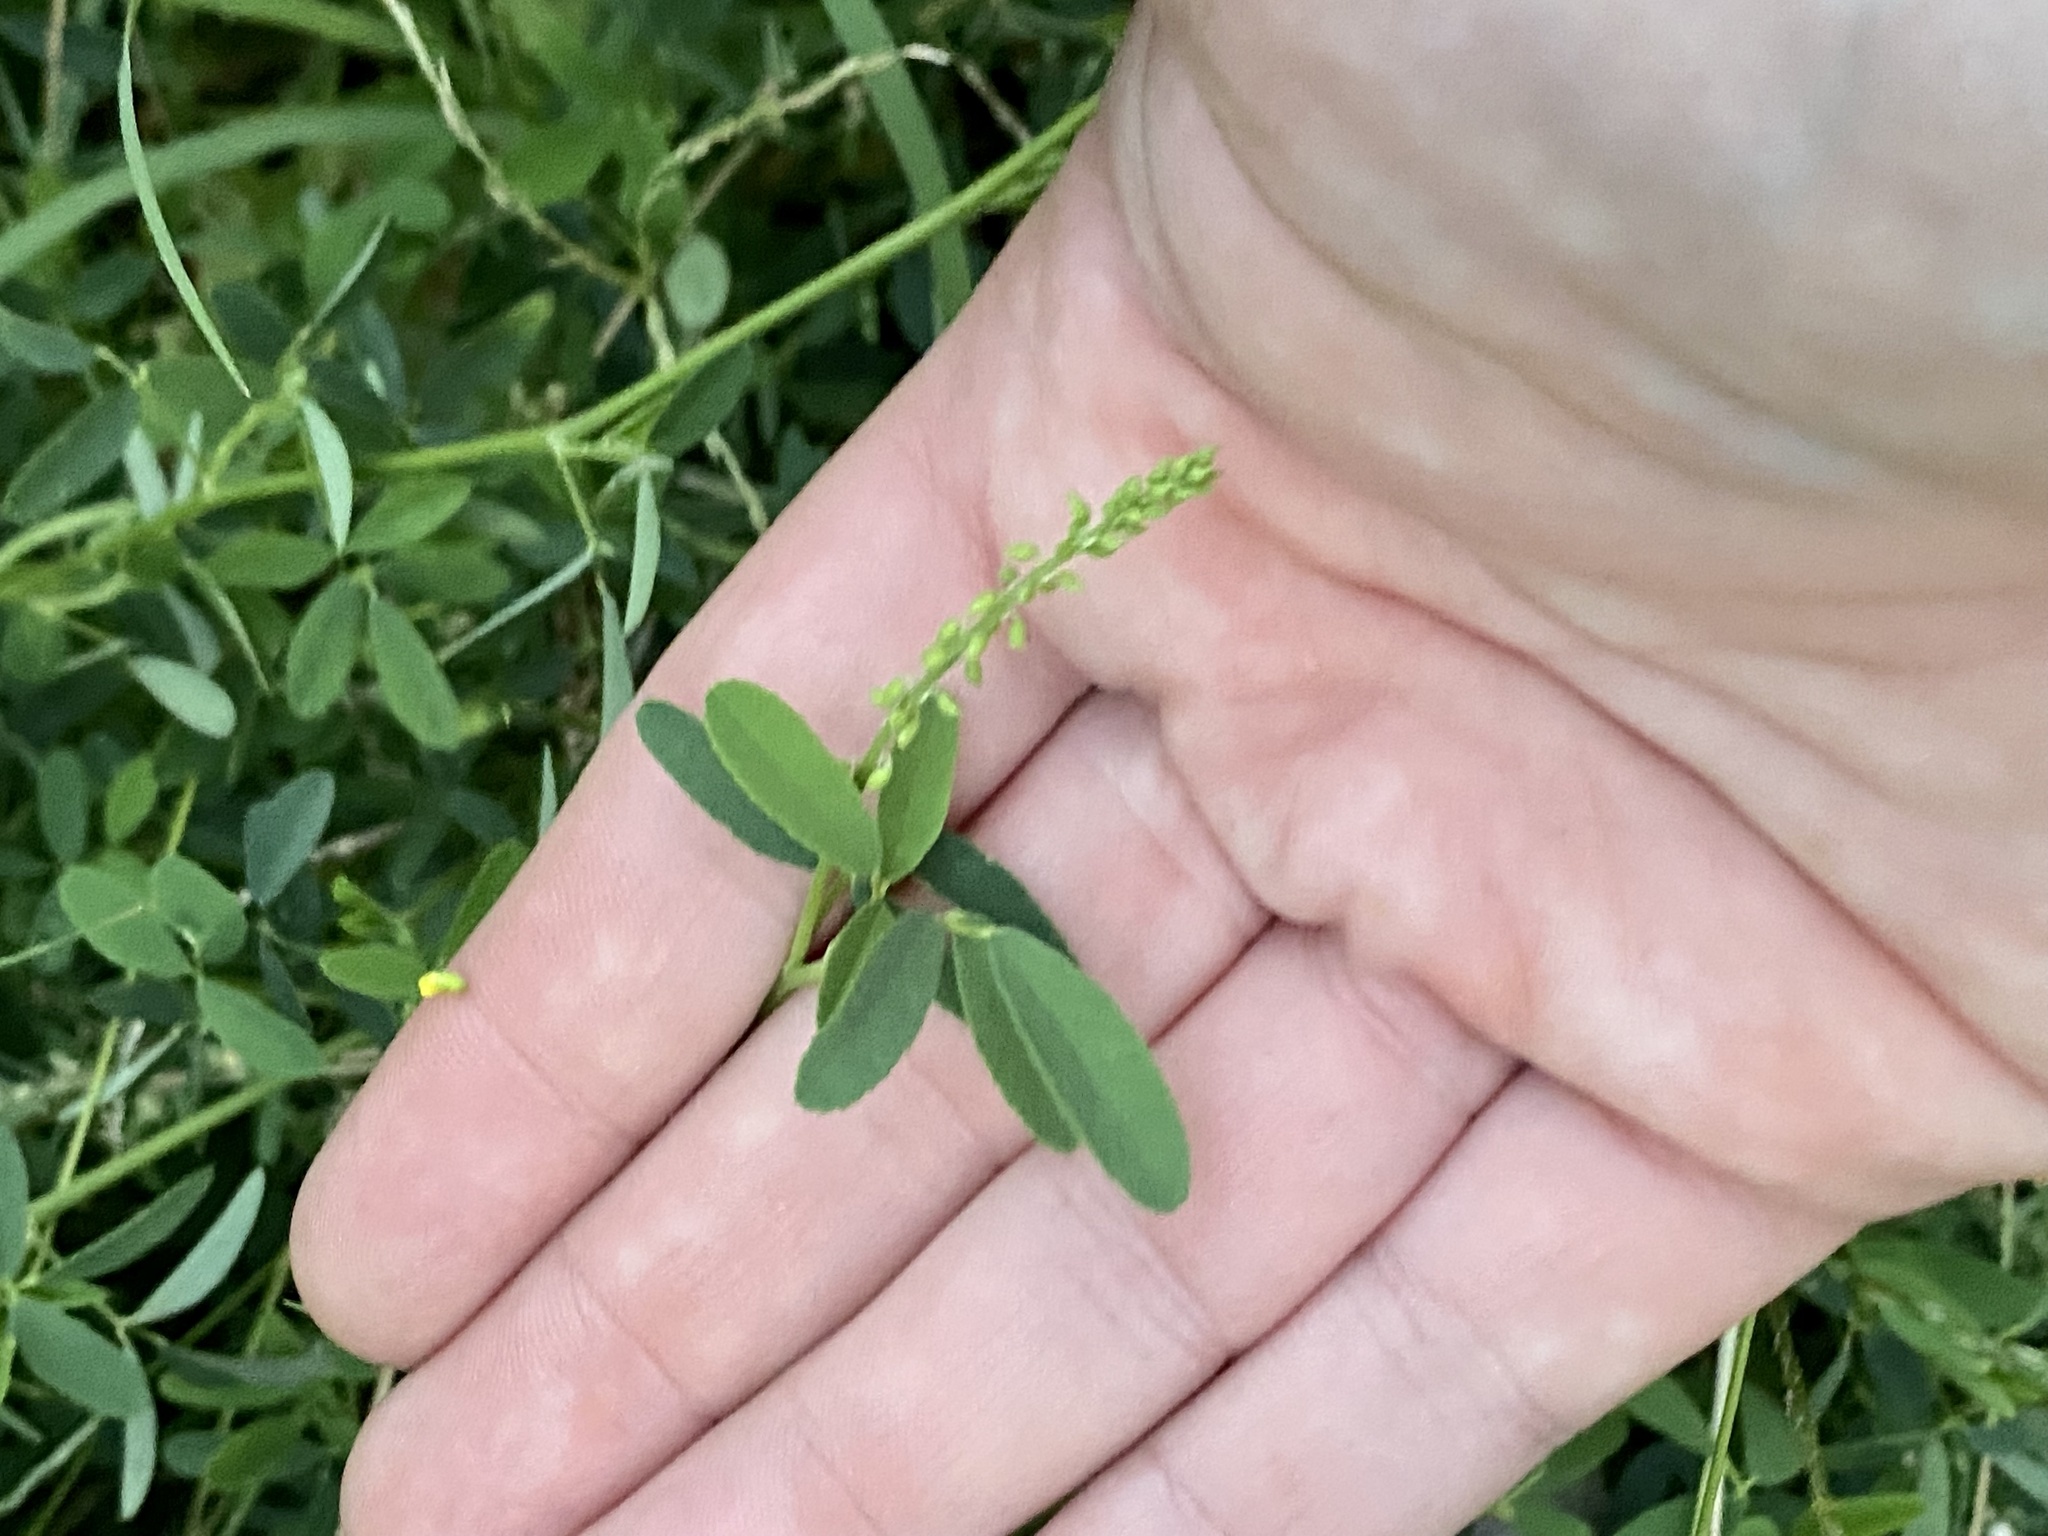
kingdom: Plantae
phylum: Tracheophyta
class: Magnoliopsida
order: Fabales
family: Fabaceae
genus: Melilotus
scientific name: Melilotus officinalis
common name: Sweetclover
